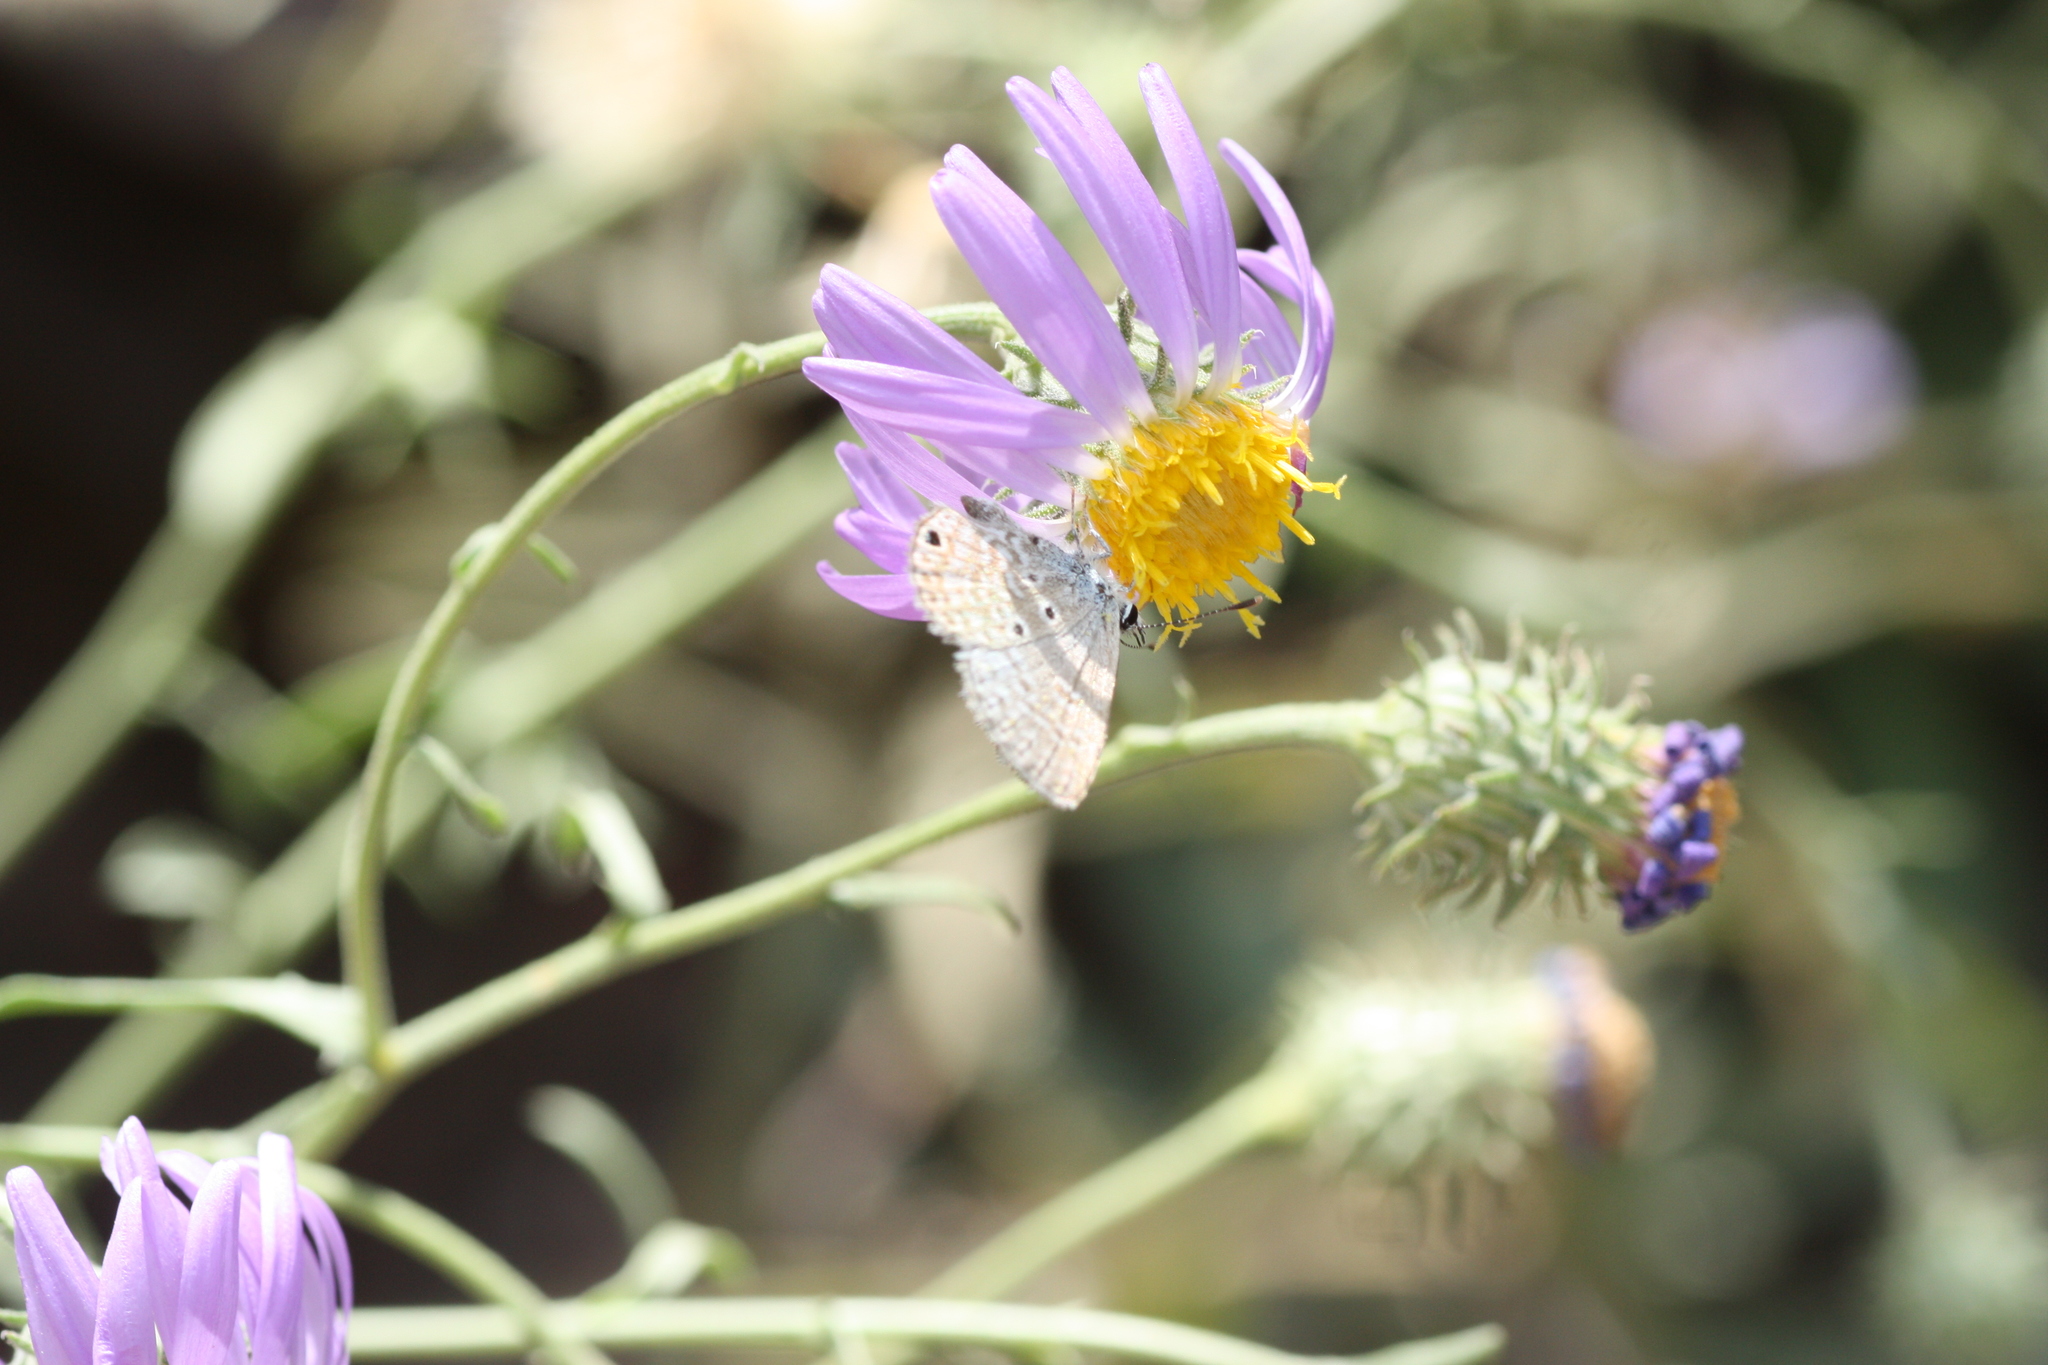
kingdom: Animalia
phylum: Arthropoda
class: Insecta
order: Lepidoptera
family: Lycaenidae
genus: Hemiargus
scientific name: Hemiargus ceraunus
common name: Ceraunus blue
